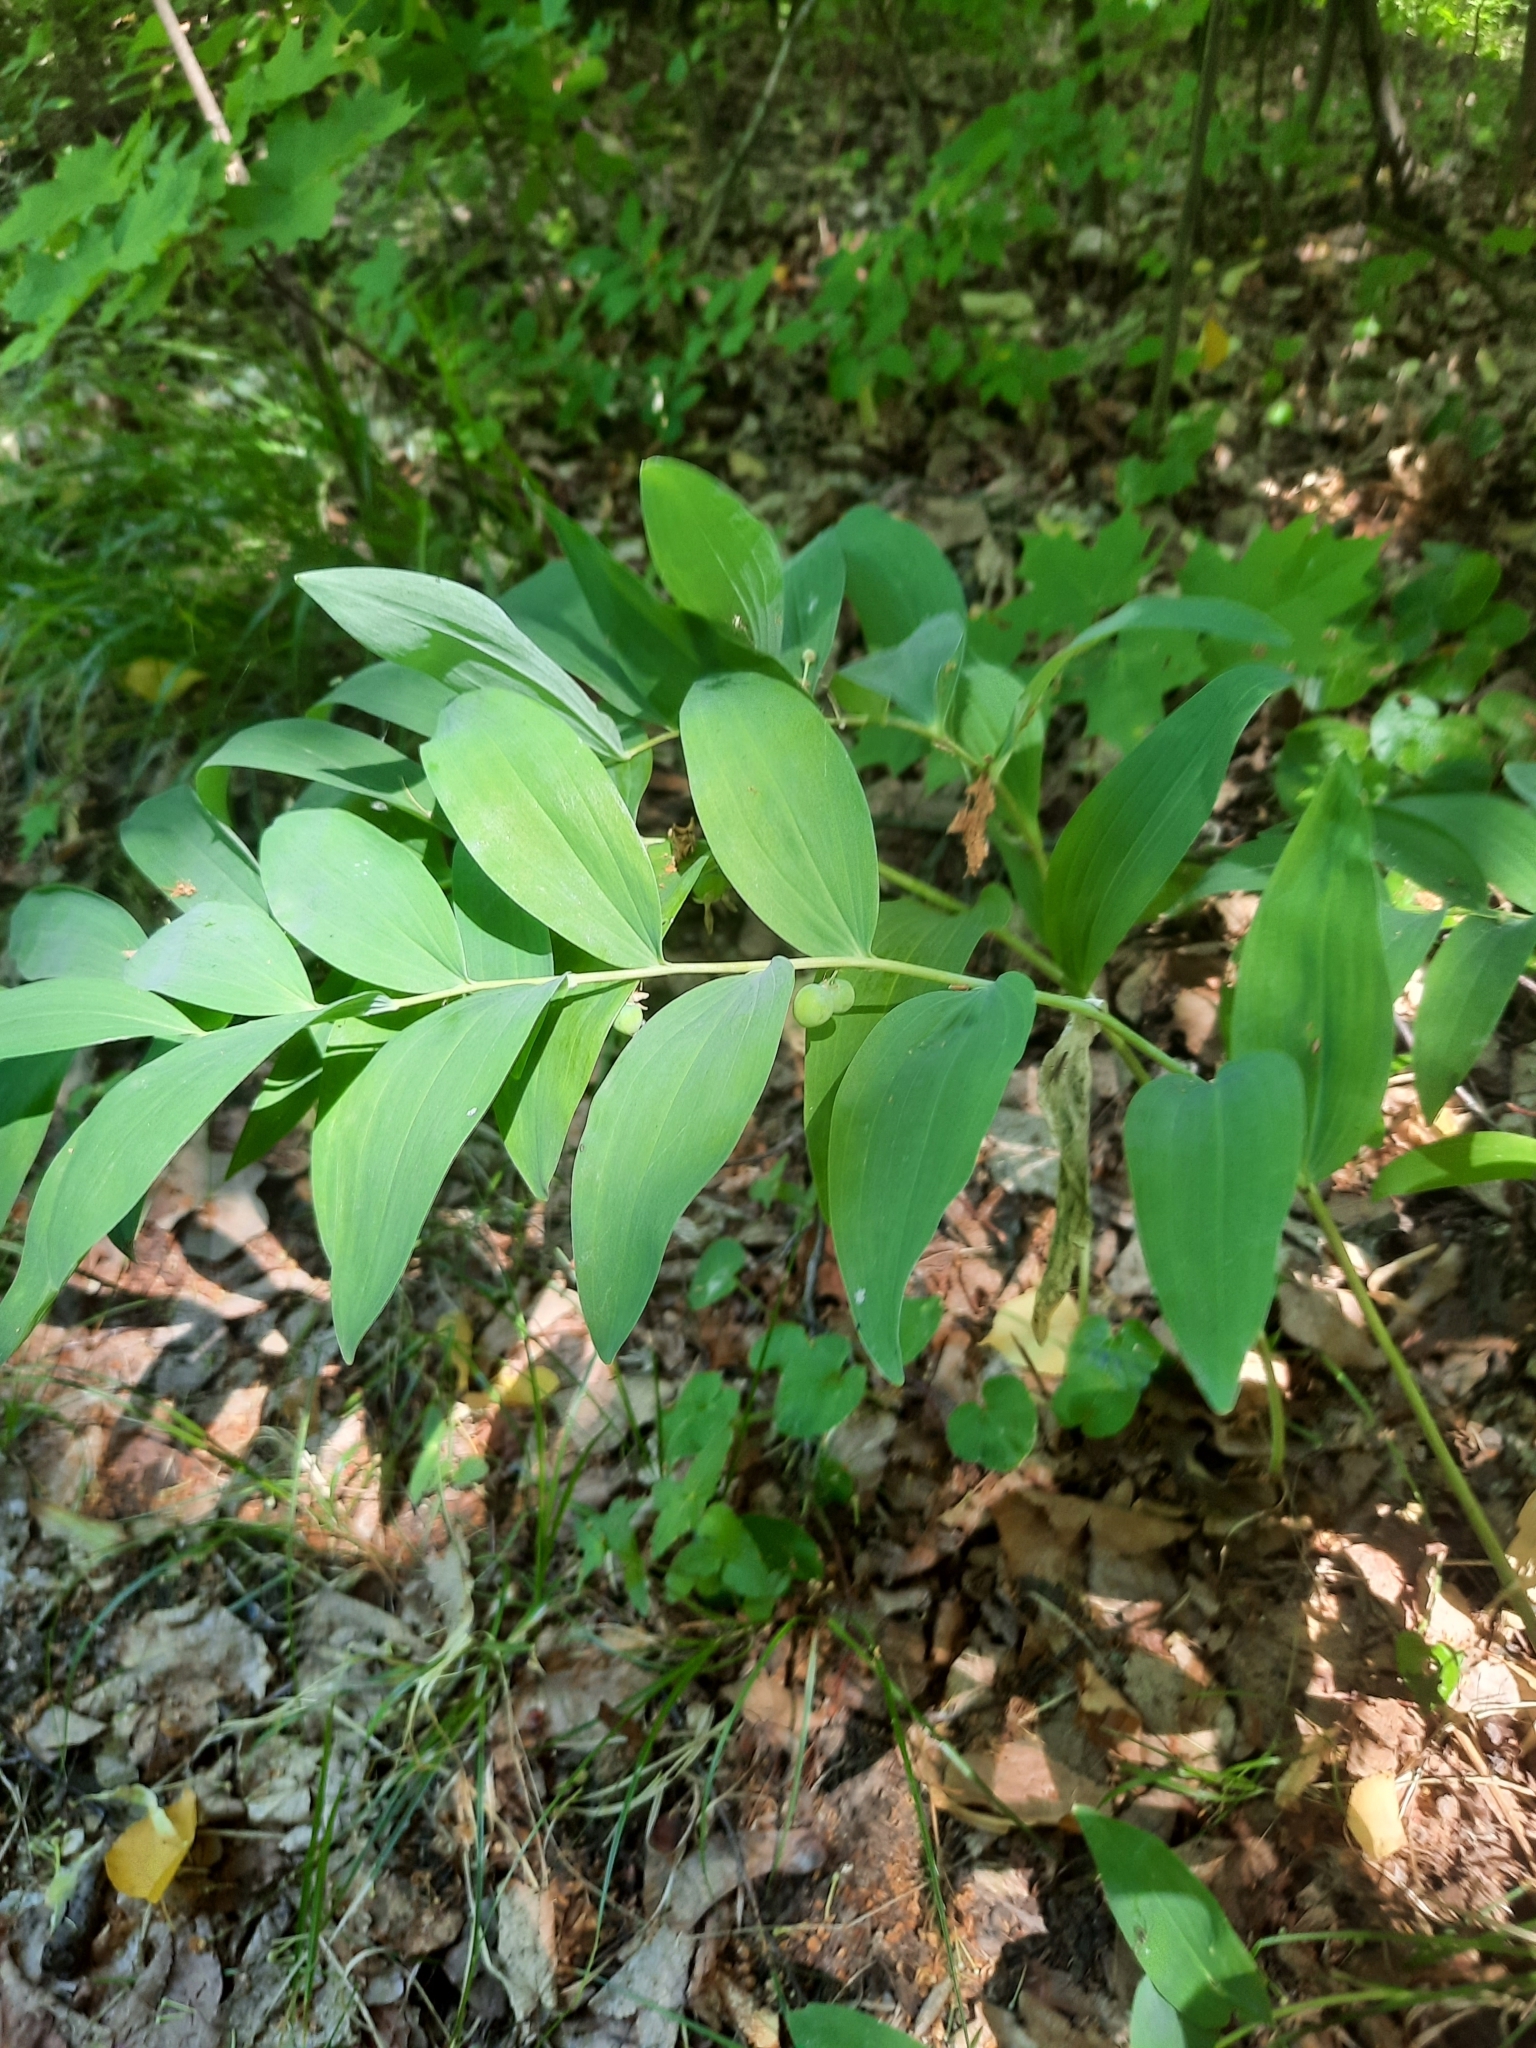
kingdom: Plantae
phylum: Tracheophyta
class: Liliopsida
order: Asparagales
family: Asparagaceae
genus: Polygonatum
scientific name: Polygonatum multiflorum
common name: Solomon's-seal
